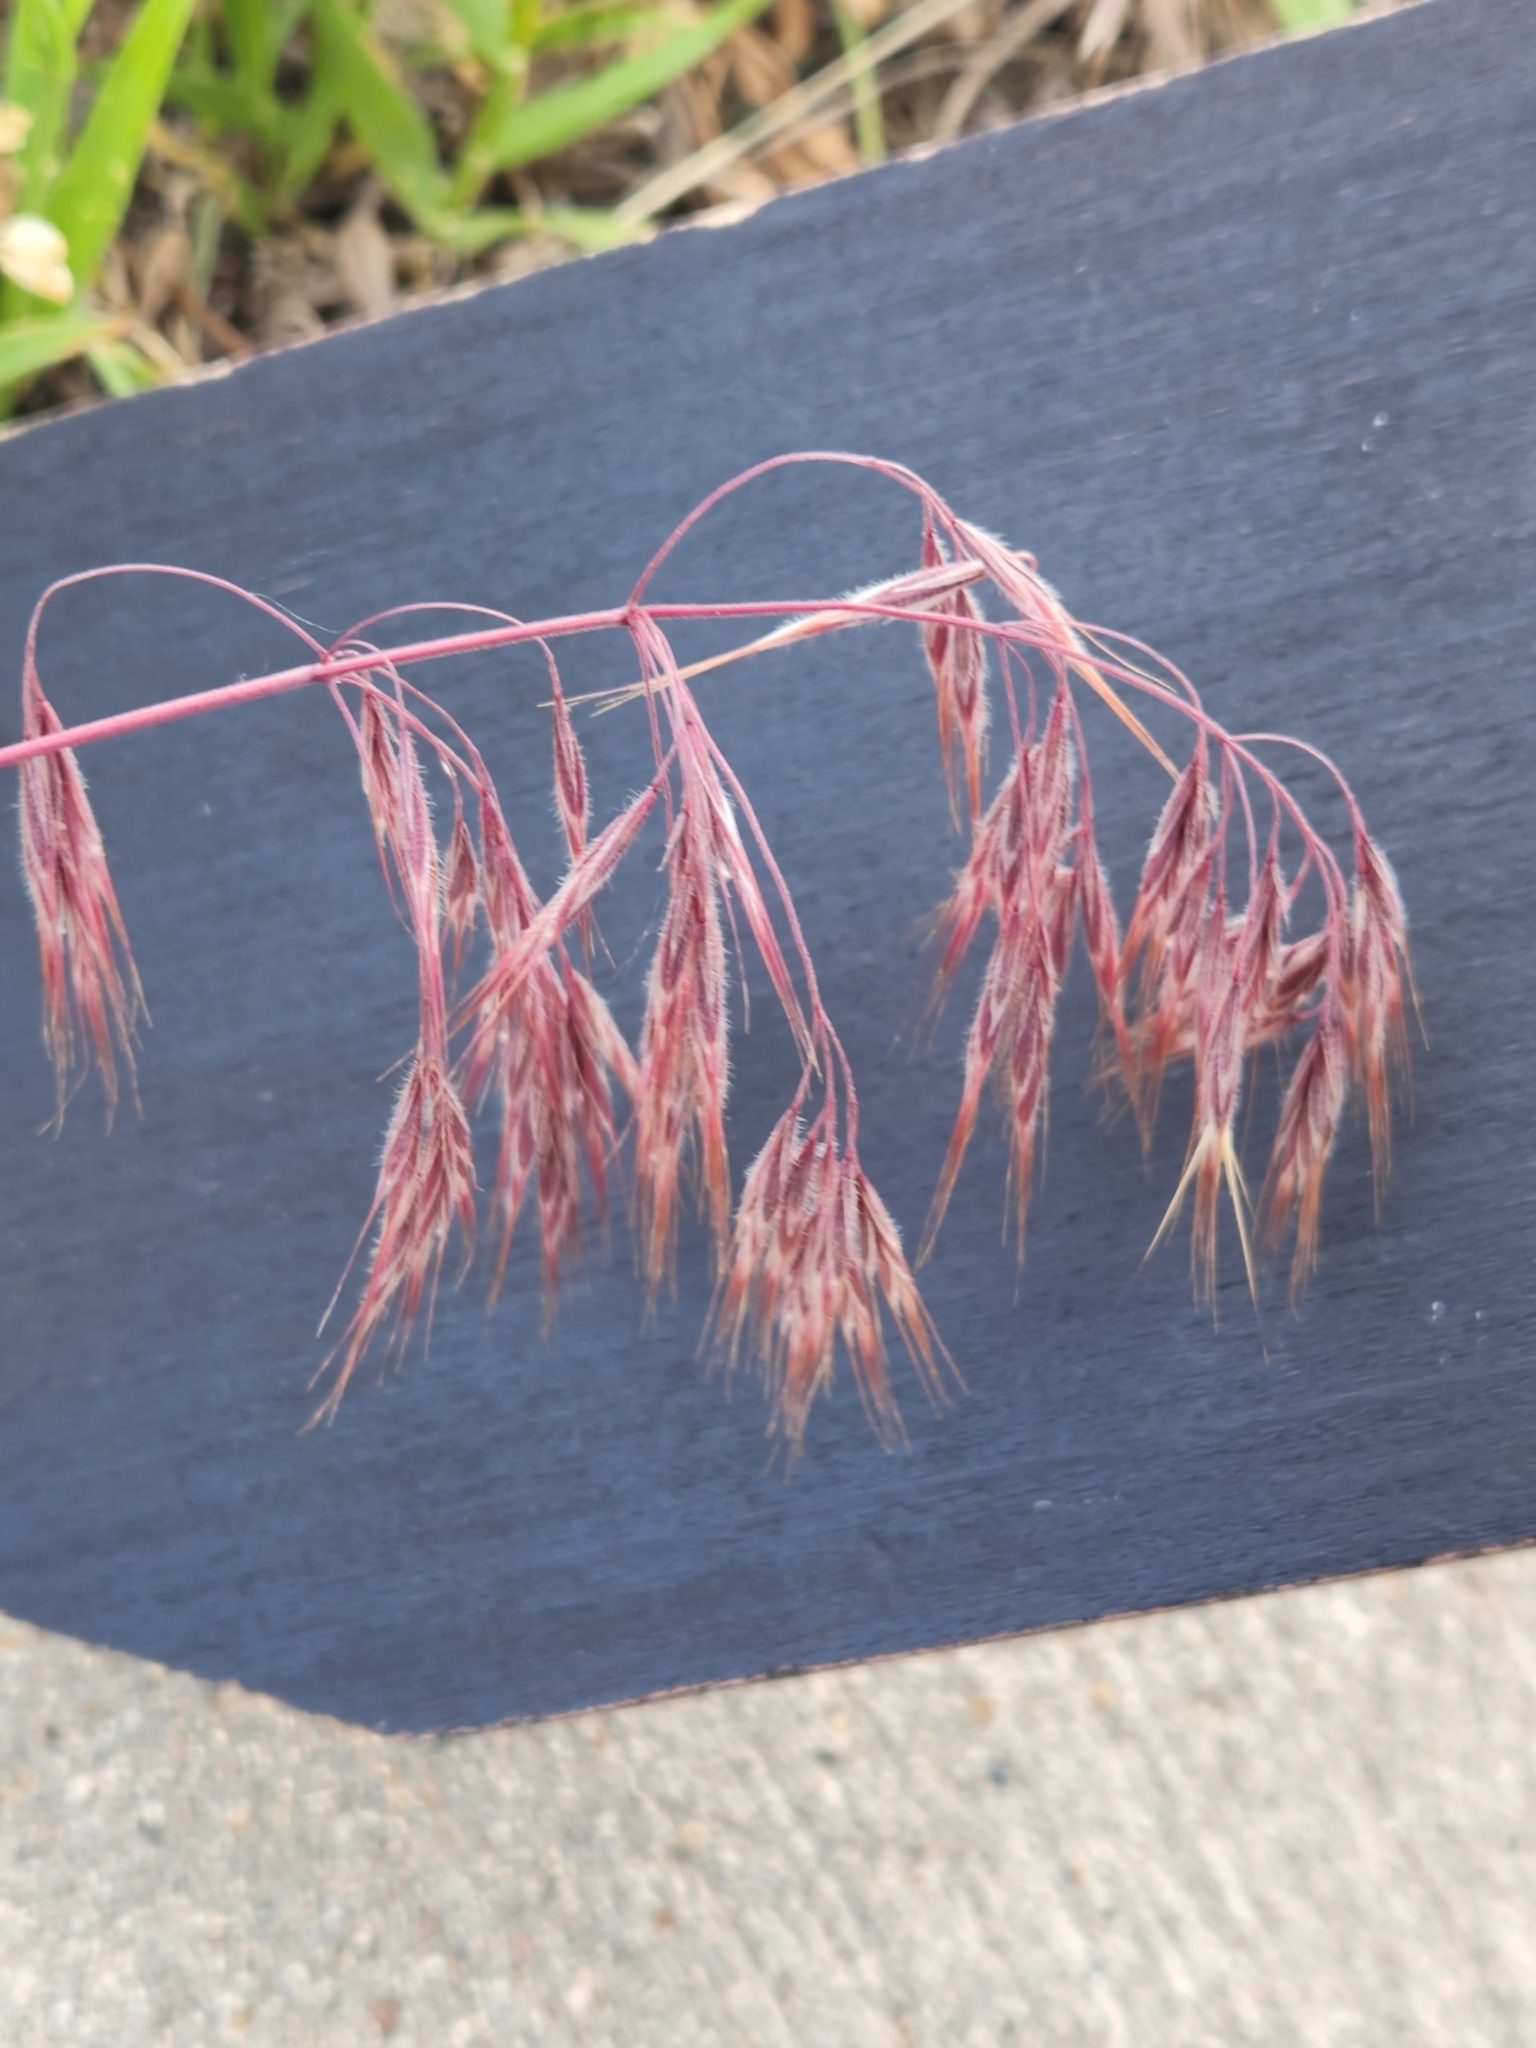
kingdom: Plantae
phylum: Tracheophyta
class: Liliopsida
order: Poales
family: Poaceae
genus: Bromus
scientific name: Bromus tectorum
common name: Cheatgrass
